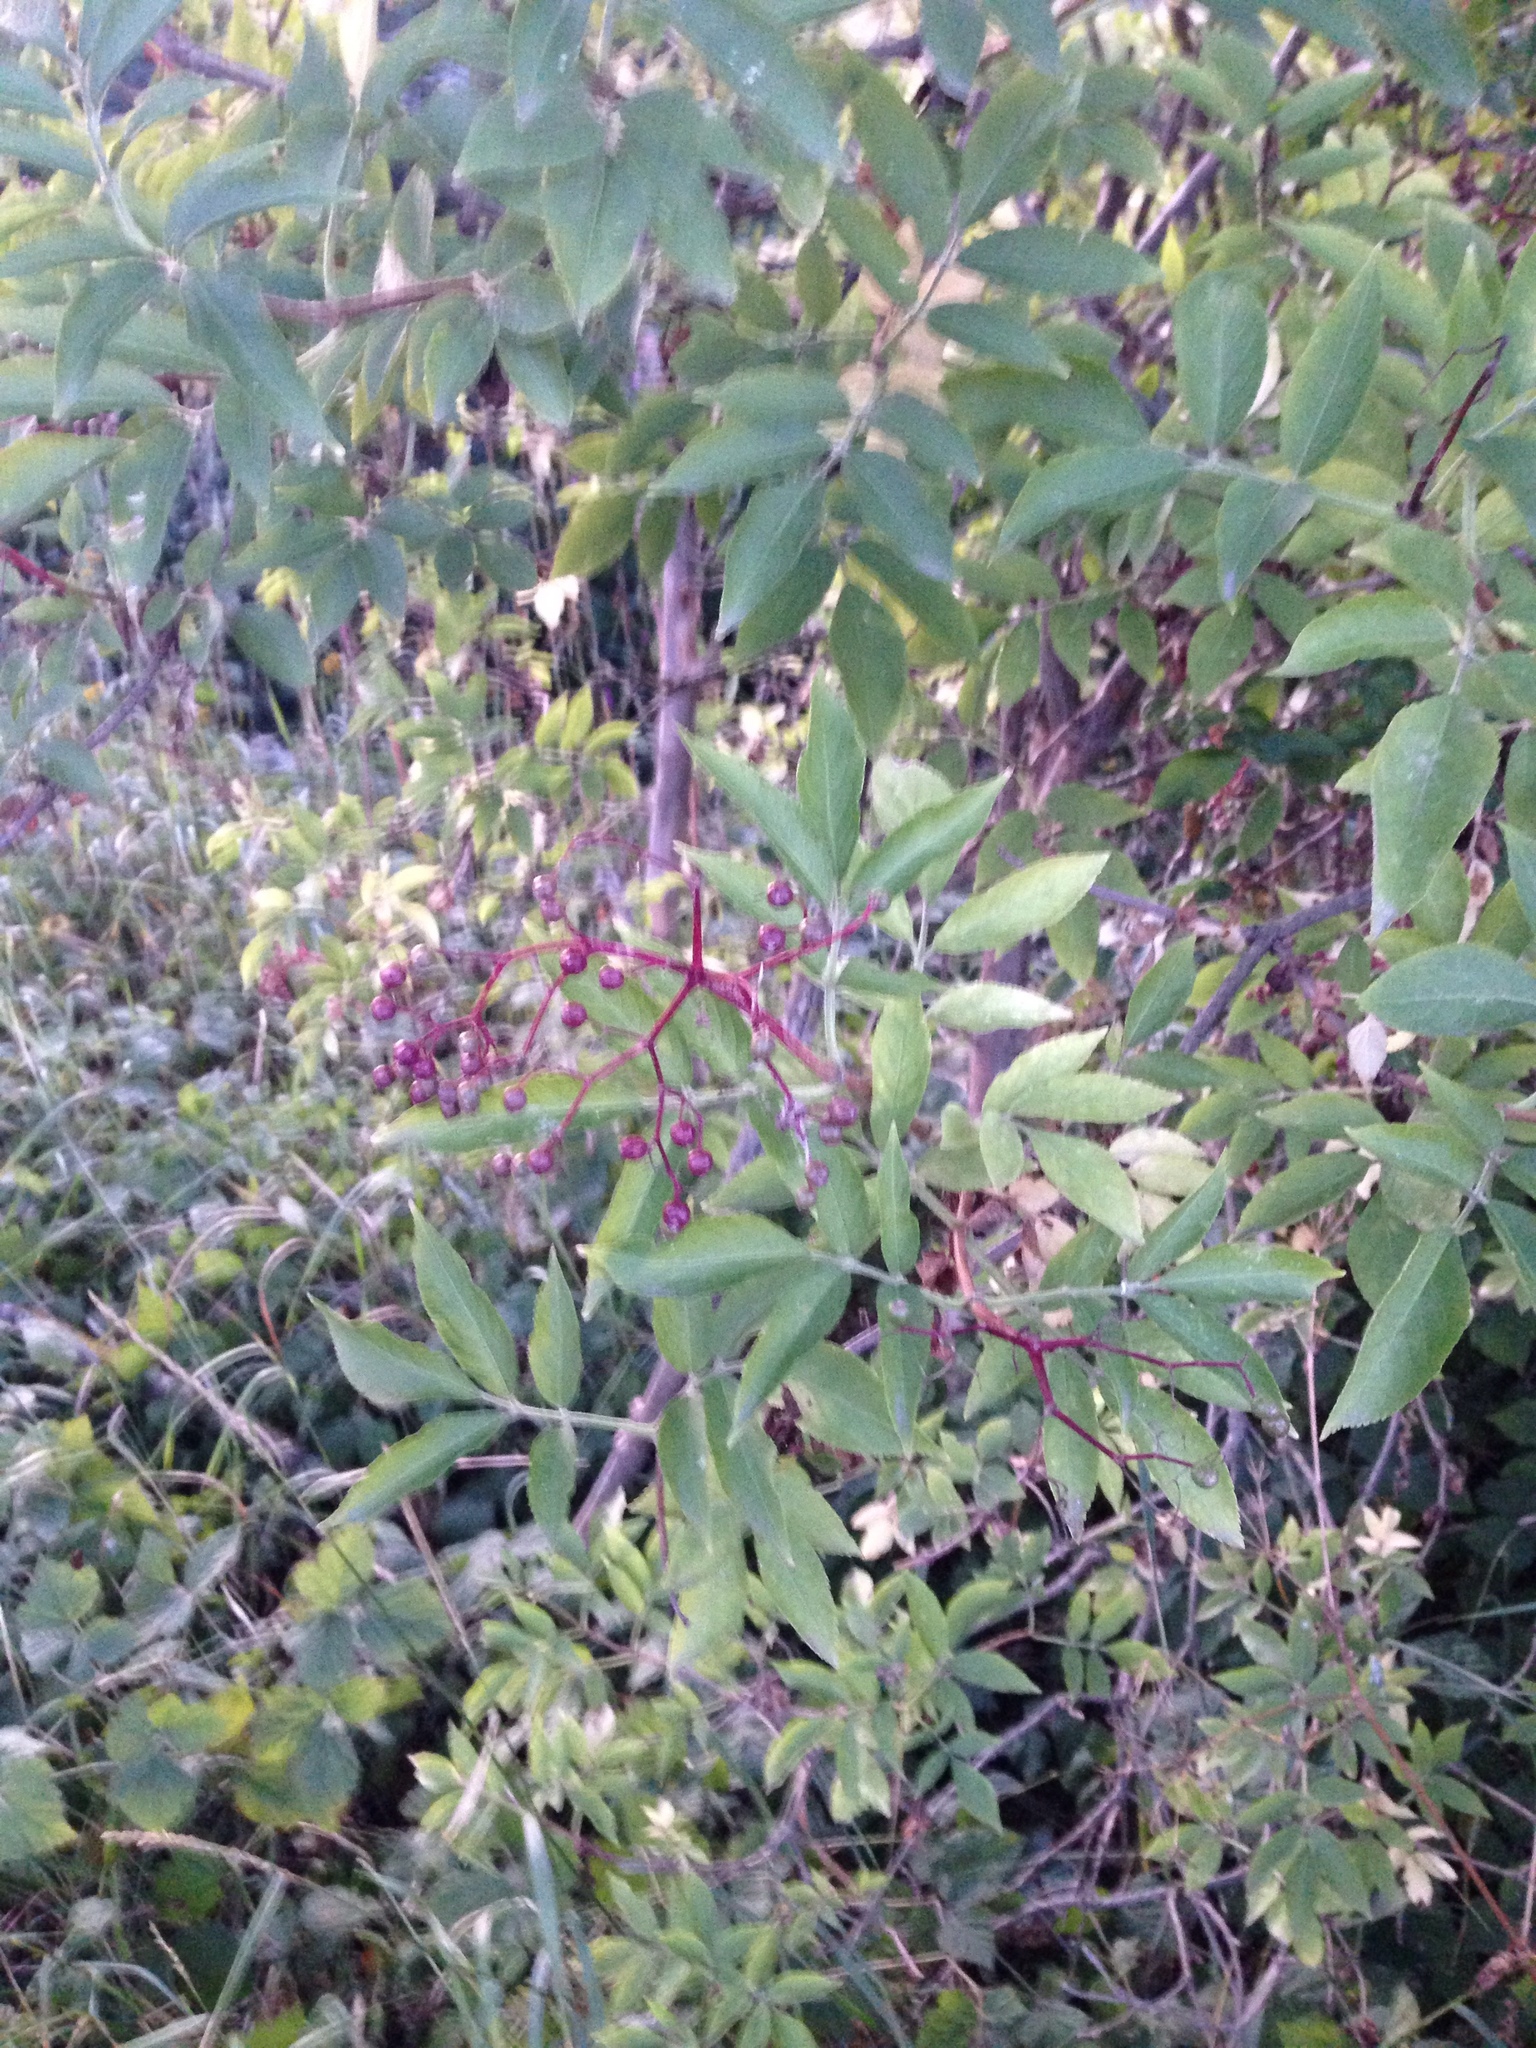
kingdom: Plantae
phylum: Tracheophyta
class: Magnoliopsida
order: Dipsacales
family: Viburnaceae
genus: Sambucus
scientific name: Sambucus nigra
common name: Elder
